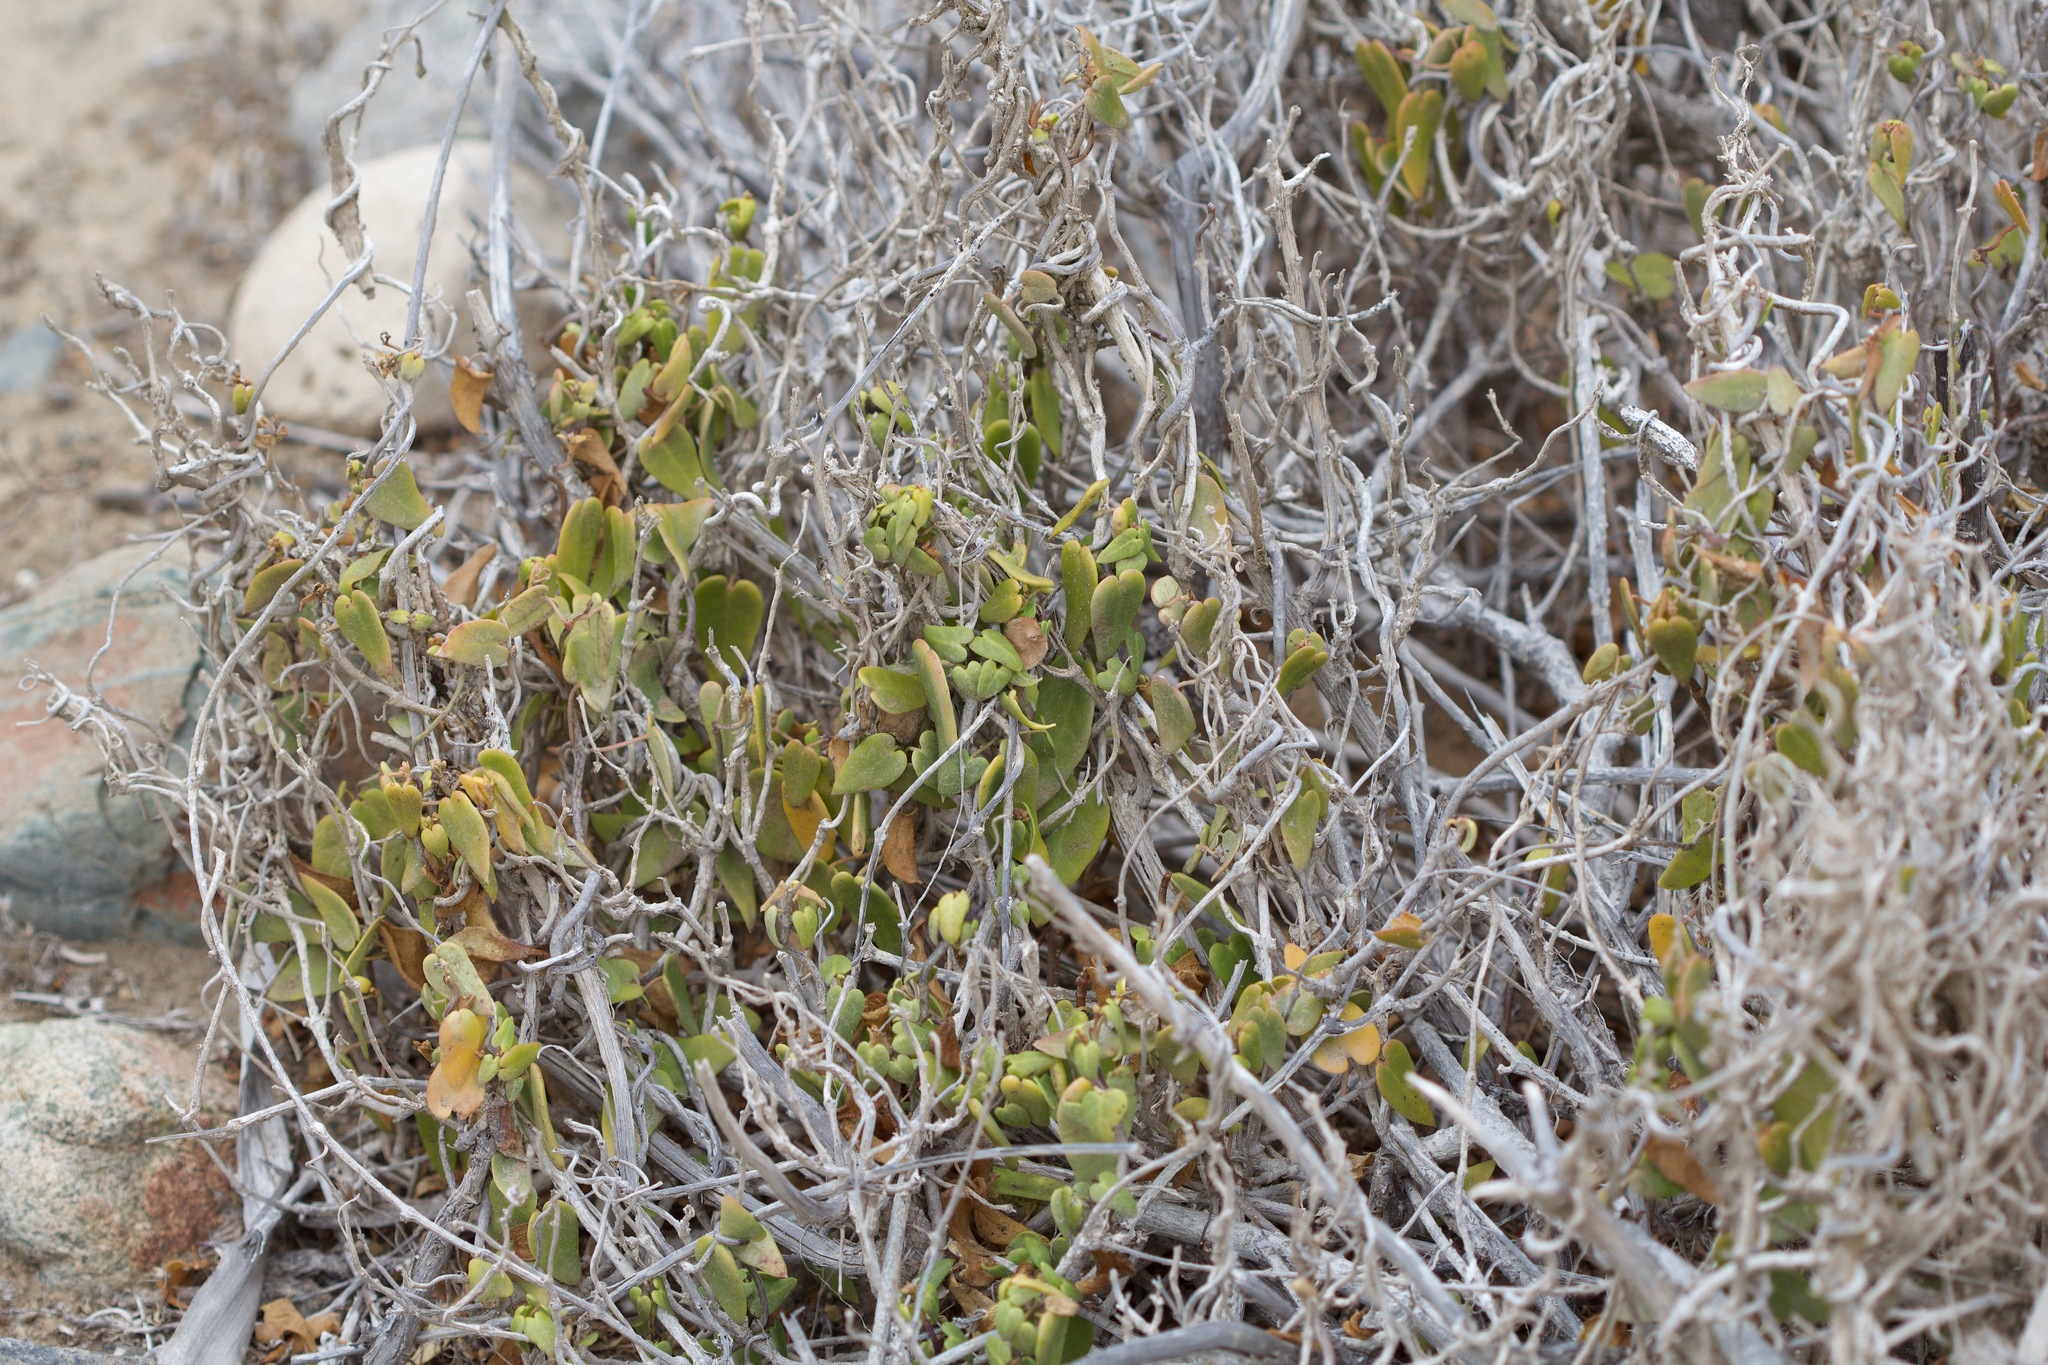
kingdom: Plantae
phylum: Tracheophyta
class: Magnoliopsida
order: Gentianales
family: Apocynaceae
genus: Diplolepis
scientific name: Diplolepis boerhaviifolia
